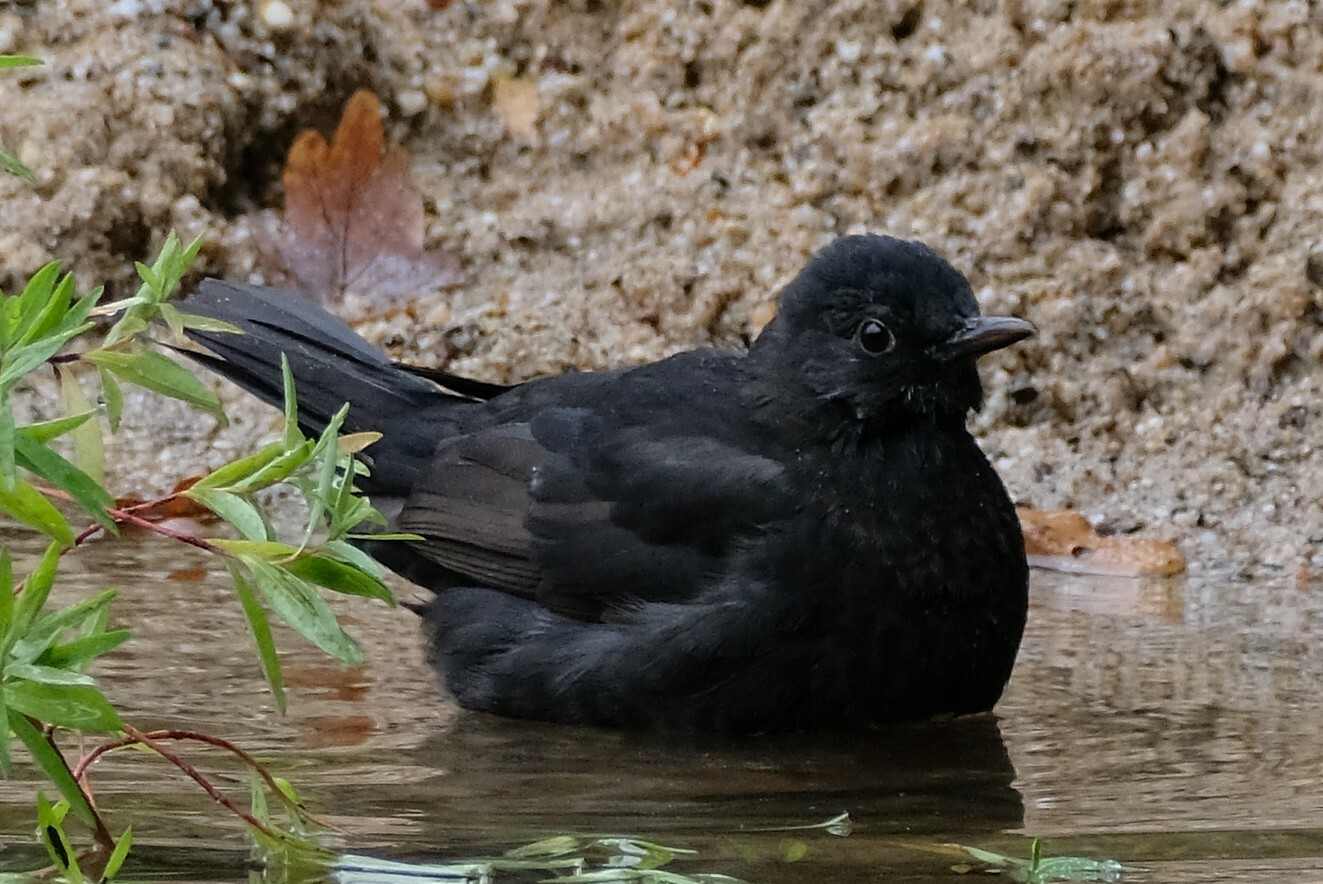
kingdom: Animalia
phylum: Chordata
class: Aves
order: Passeriformes
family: Turdidae
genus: Turdus
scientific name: Turdus merula
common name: Common blackbird
